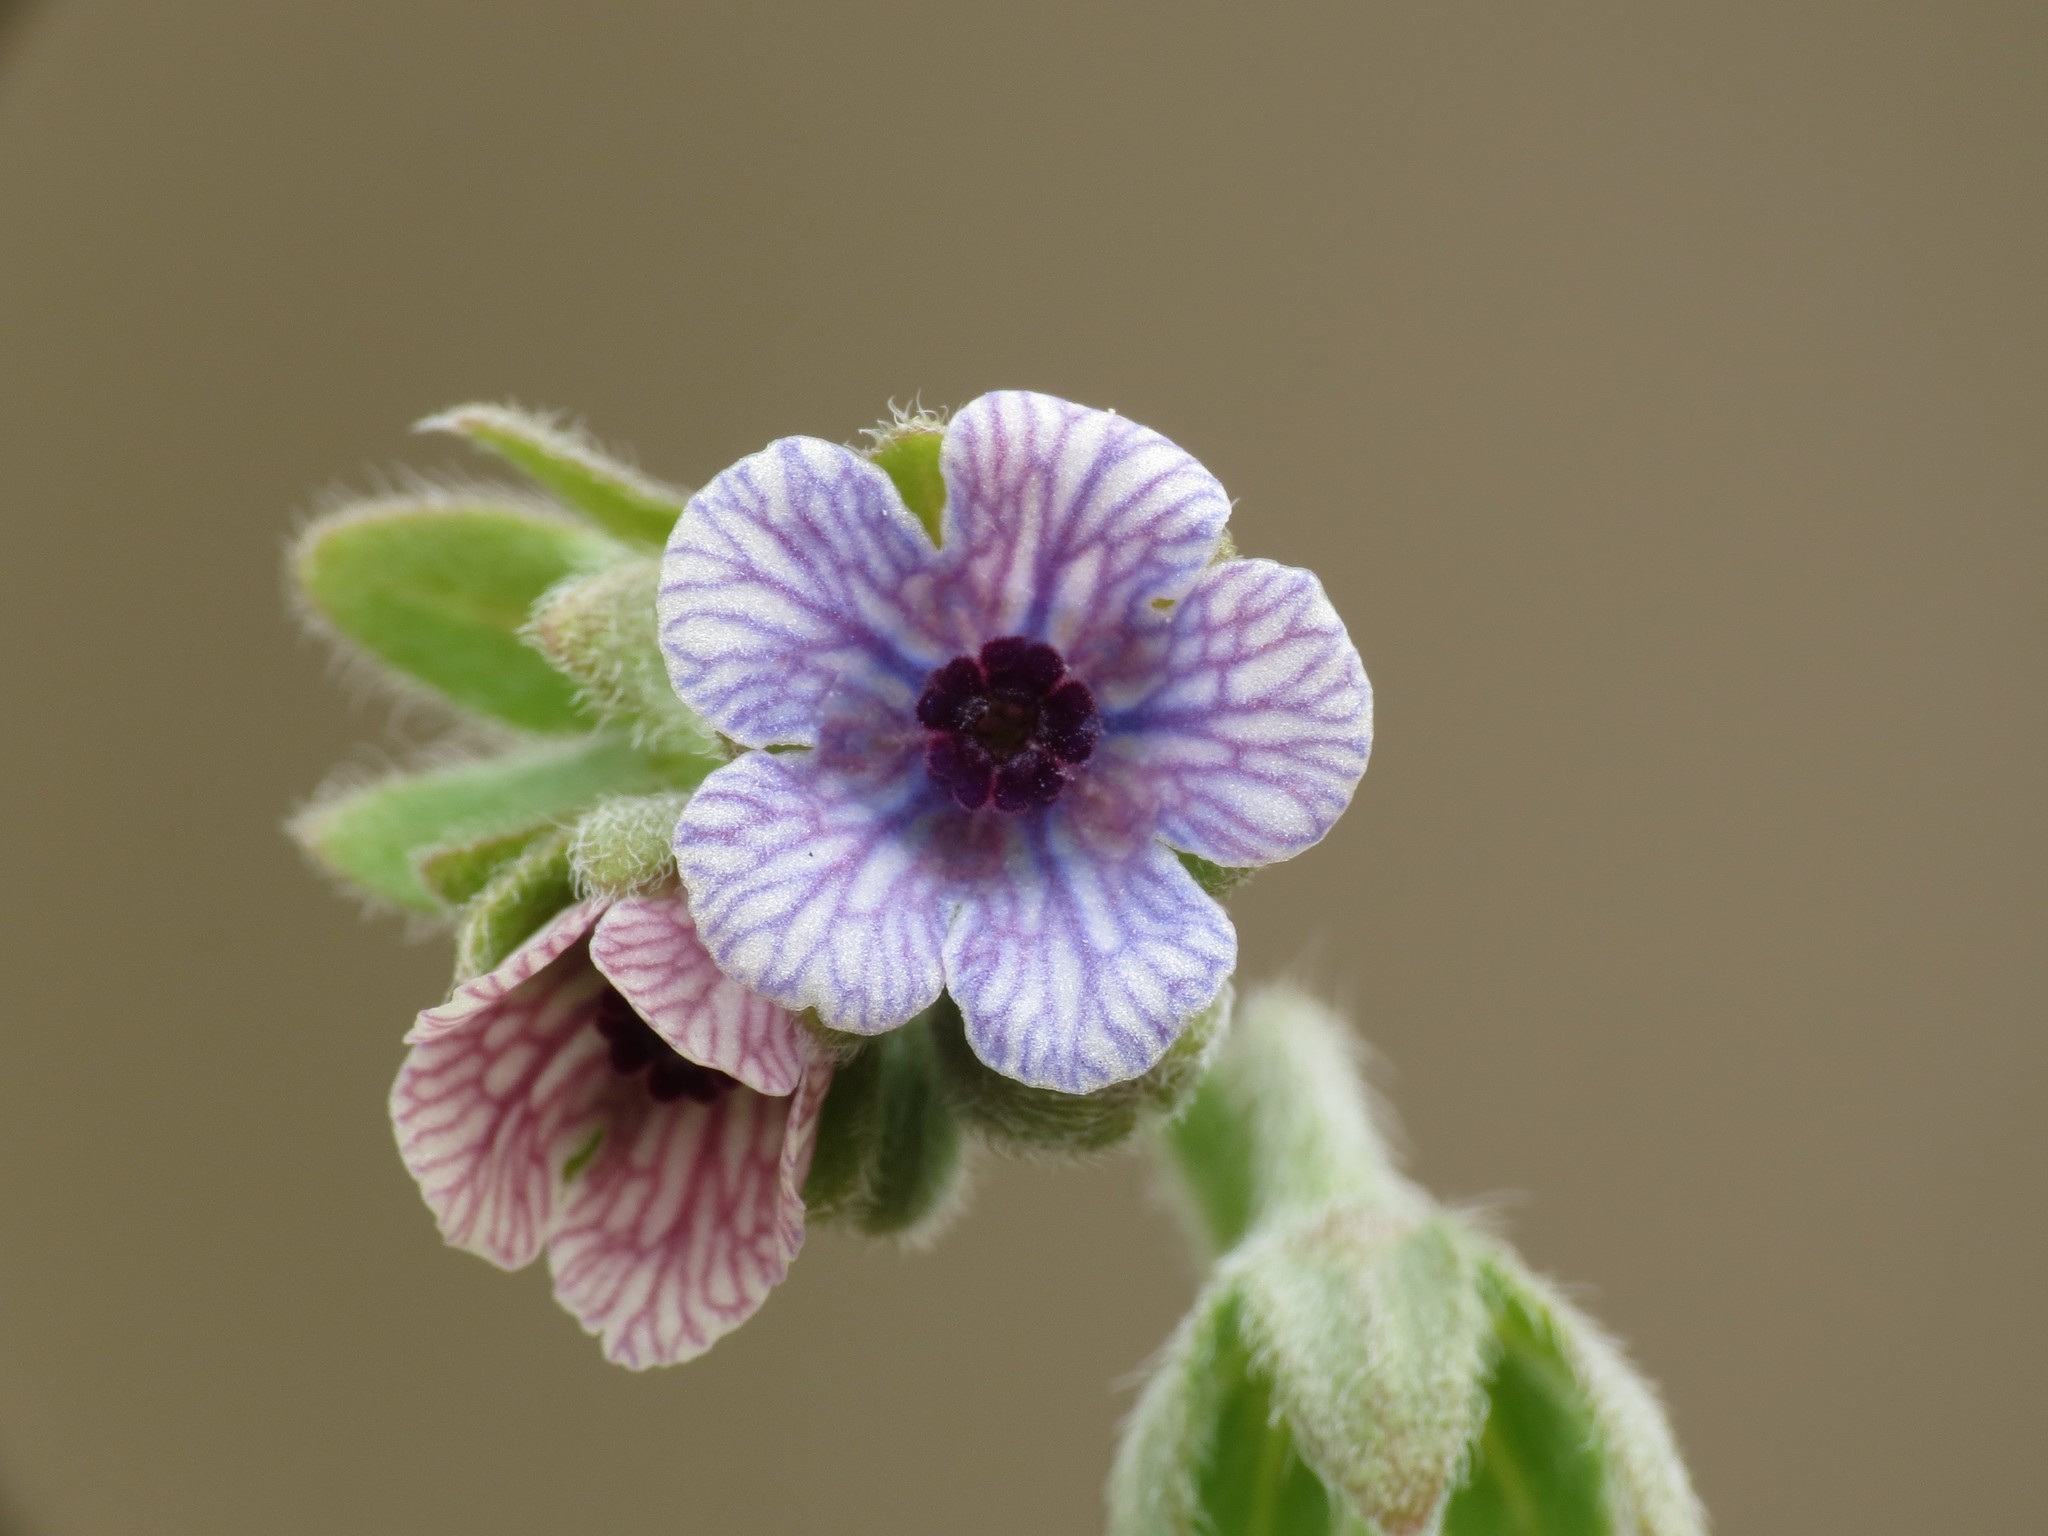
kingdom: Plantae
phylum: Tracheophyta
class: Magnoliopsida
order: Boraginales
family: Boraginaceae
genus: Cynoglossum
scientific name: Cynoglossum creticum
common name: Blue hound's tongue
